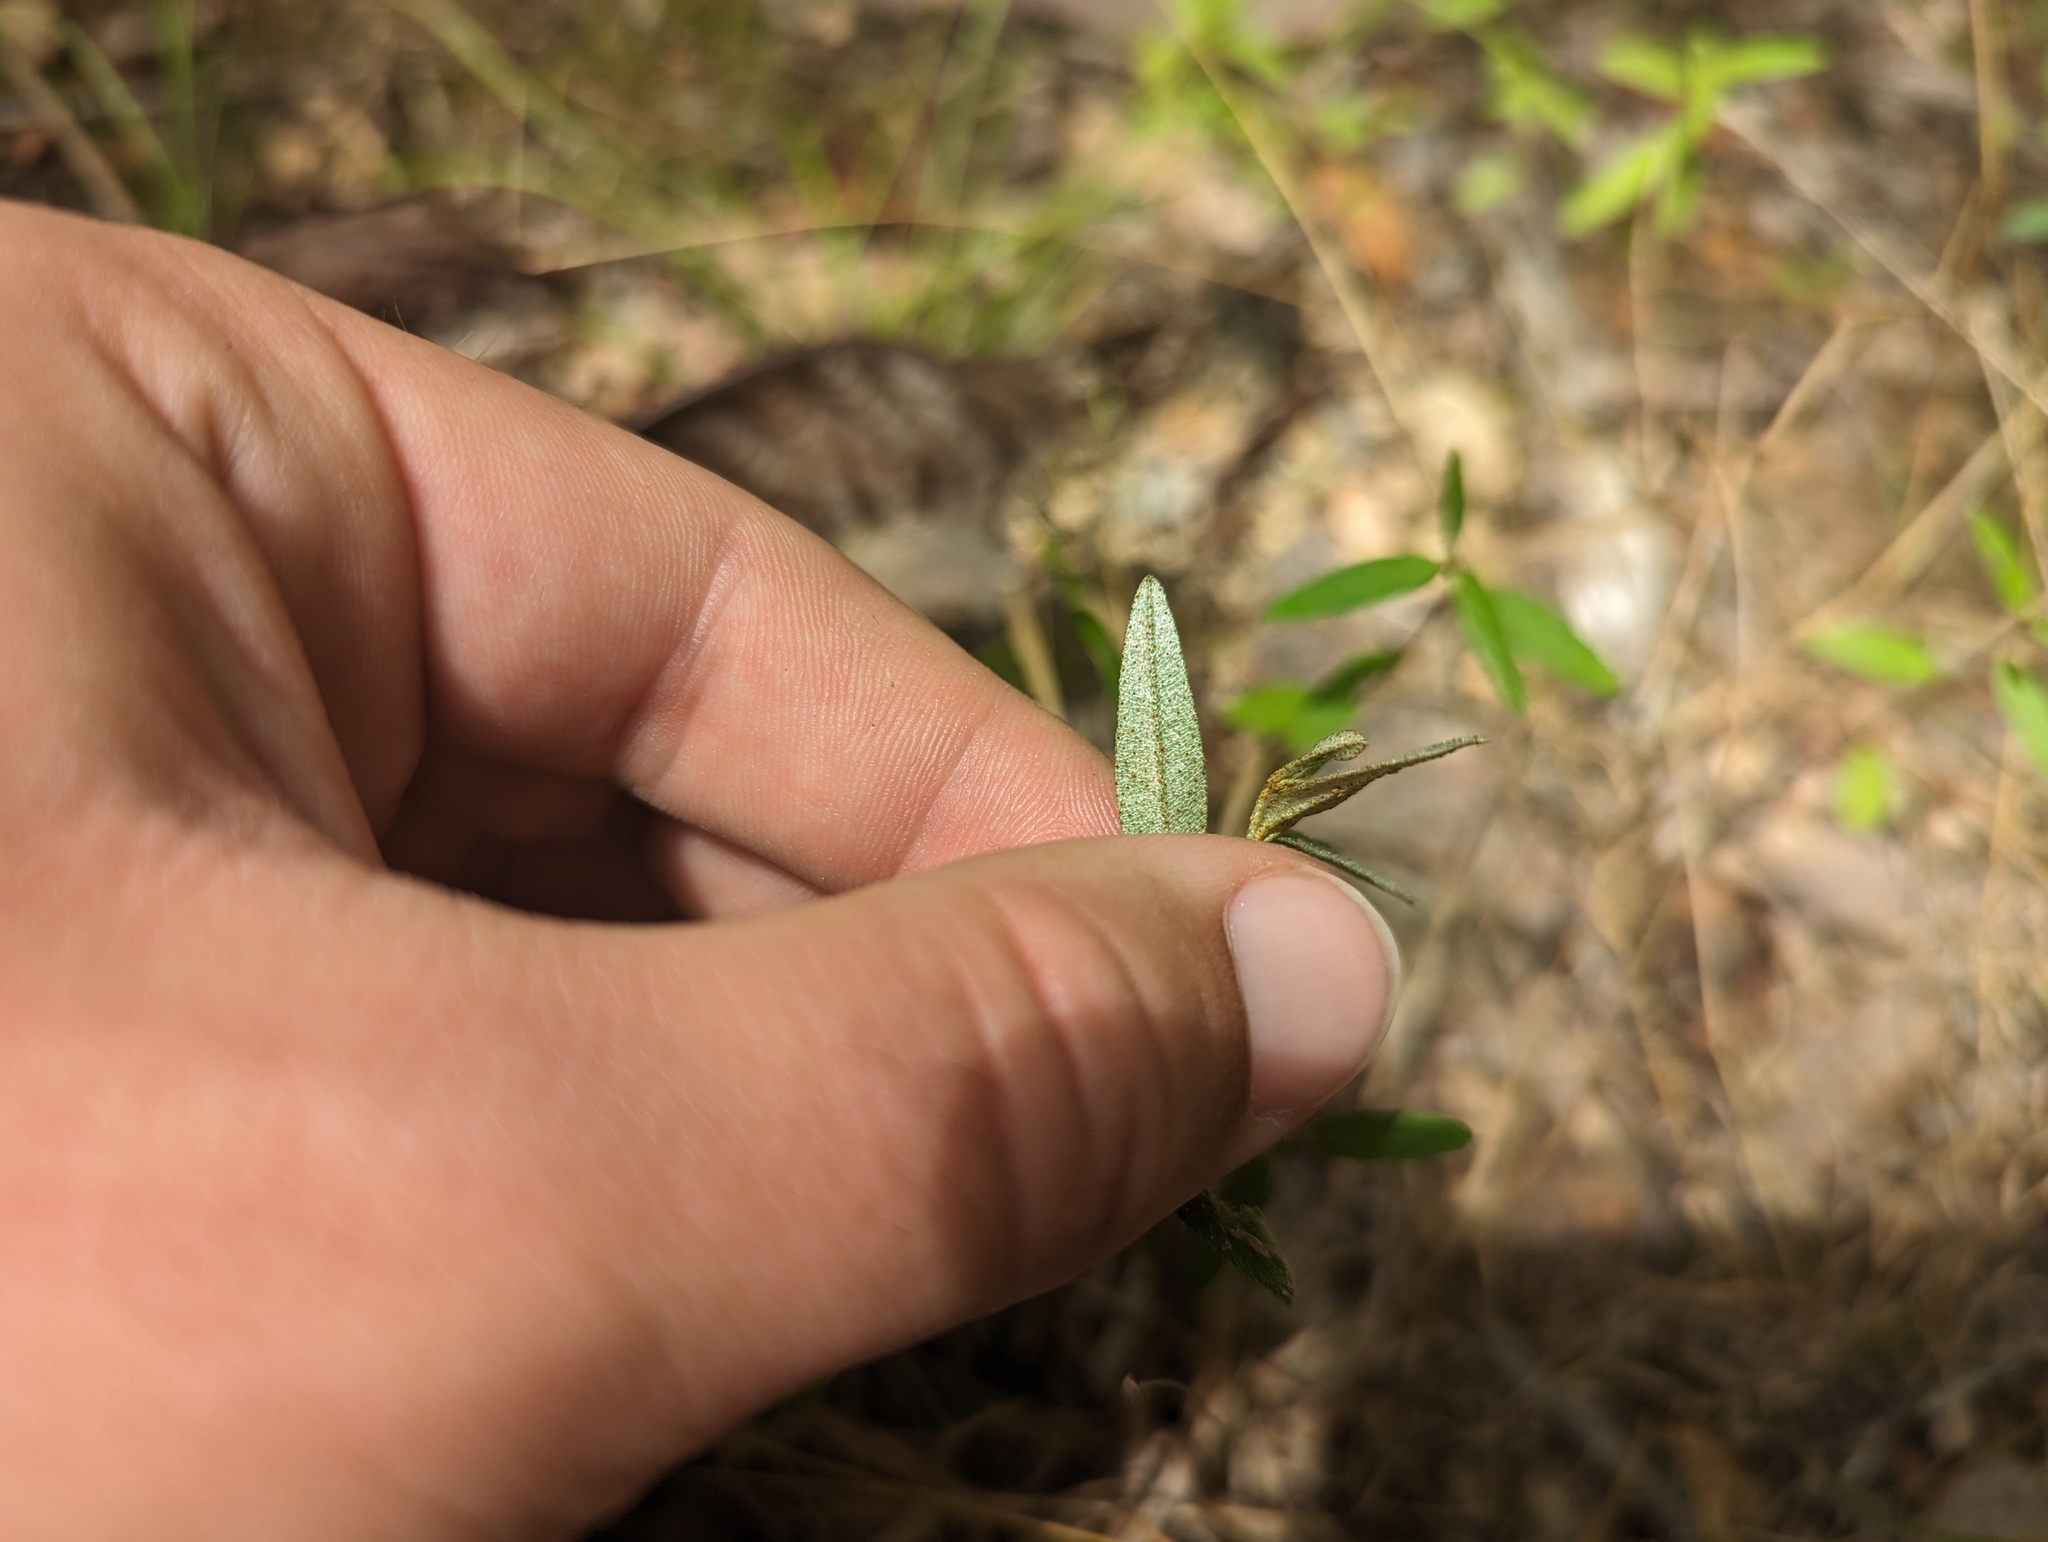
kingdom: Plantae
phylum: Tracheophyta
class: Magnoliopsida
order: Malpighiales
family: Euphorbiaceae
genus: Croton
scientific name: Croton michauxii
